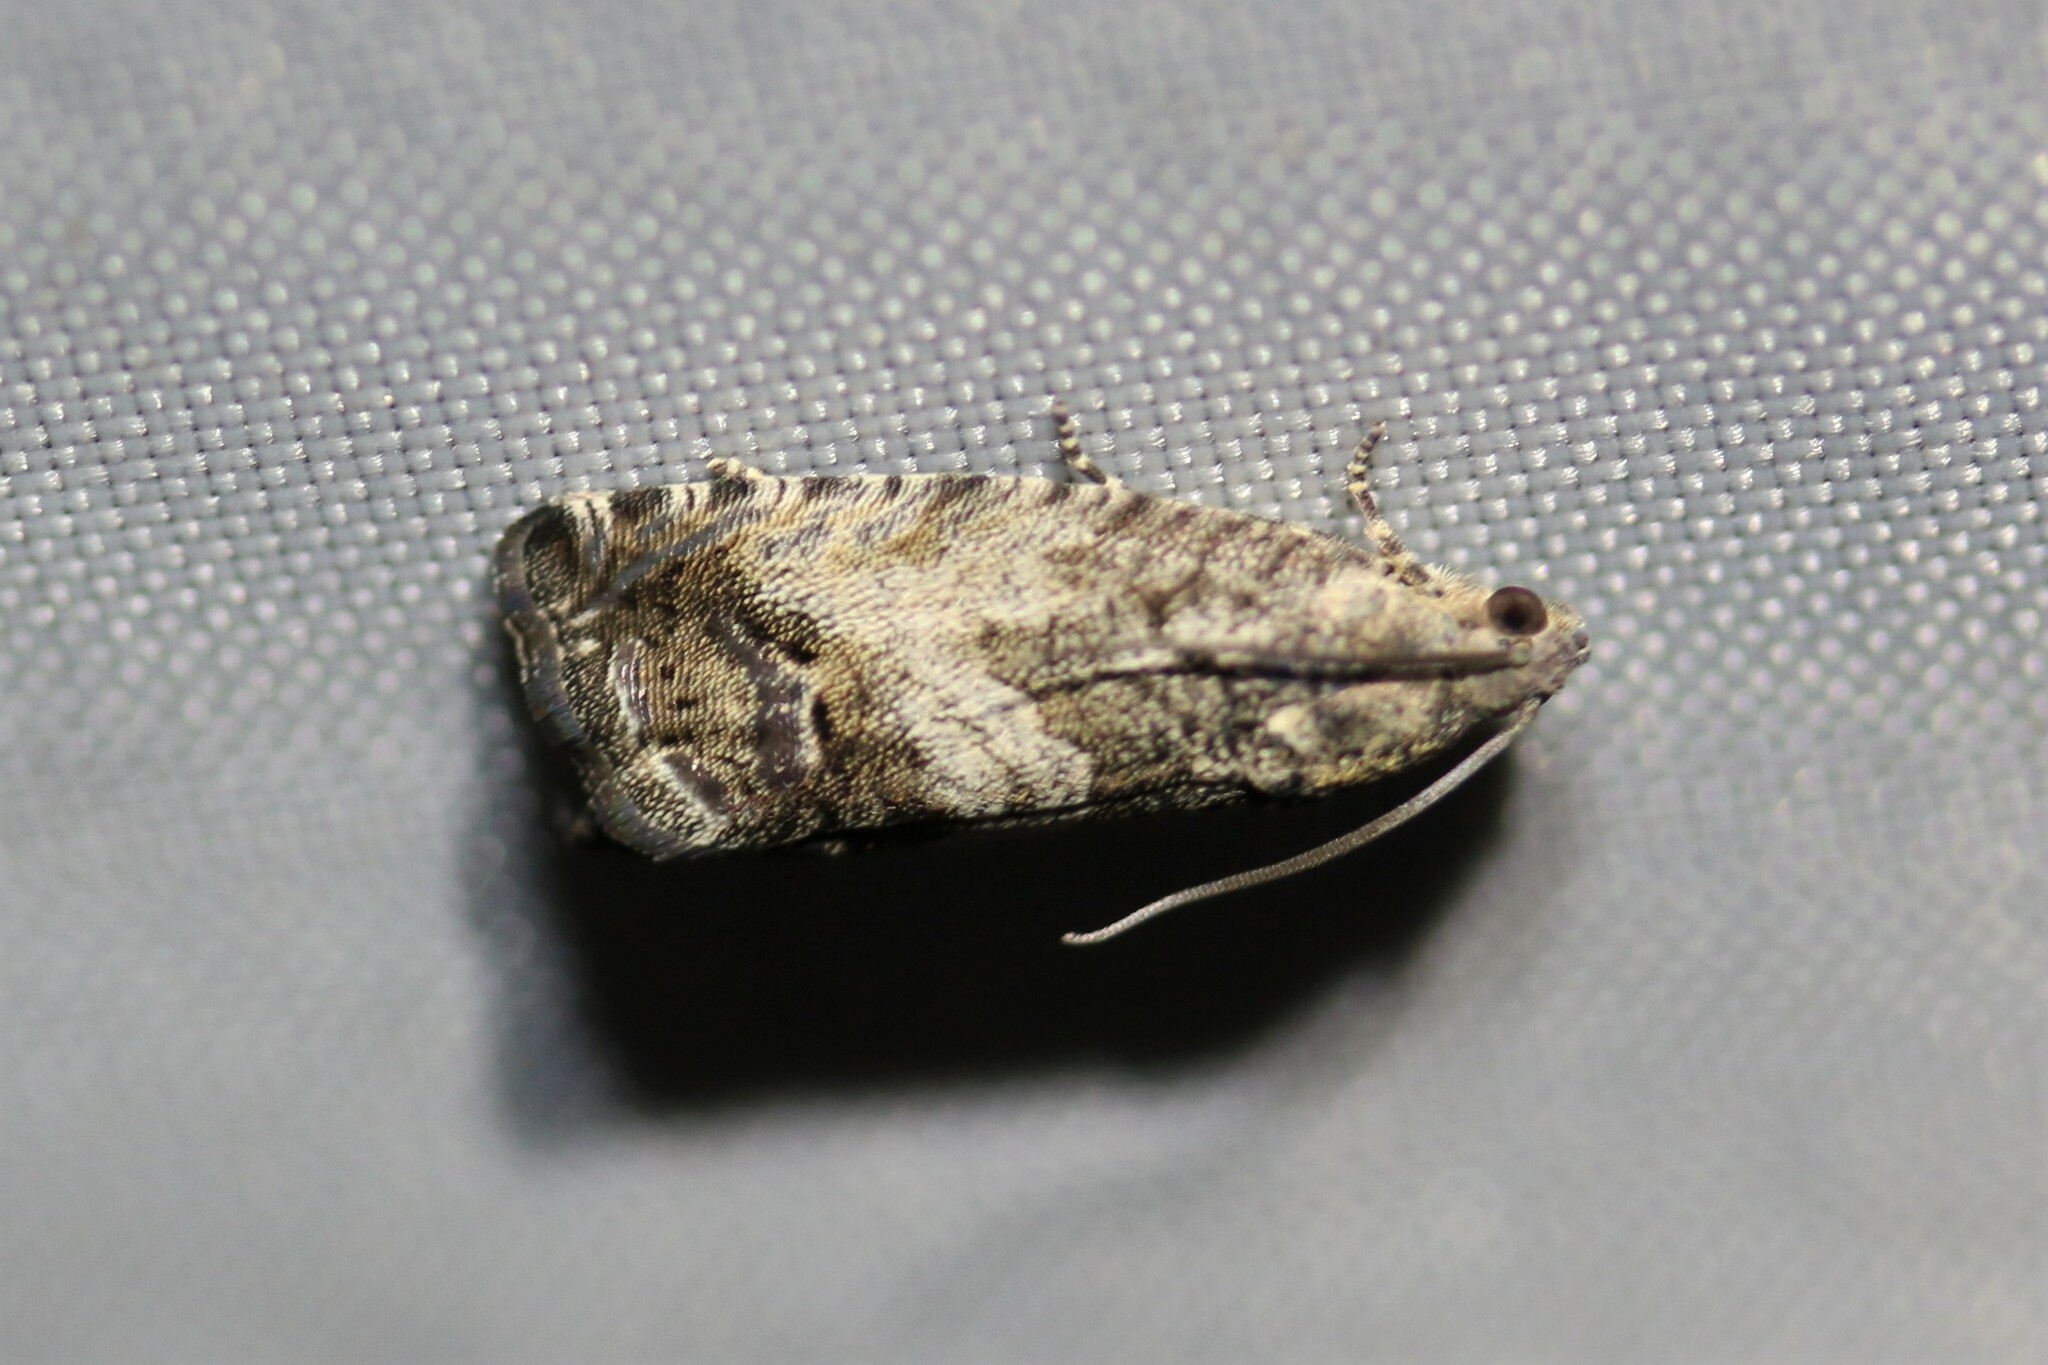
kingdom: Animalia
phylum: Arthropoda
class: Insecta
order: Lepidoptera
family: Tortricidae
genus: Cydia
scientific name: Cydia splendana
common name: De: kastanienwickler, eichenwickler es: oruga de la castaña fr: carpocapse des châtaignes it: cidia o tortrice tardiva delle castagne pt: bichado das castanhas gb: acorn moth, chestnut fruit tortrix
